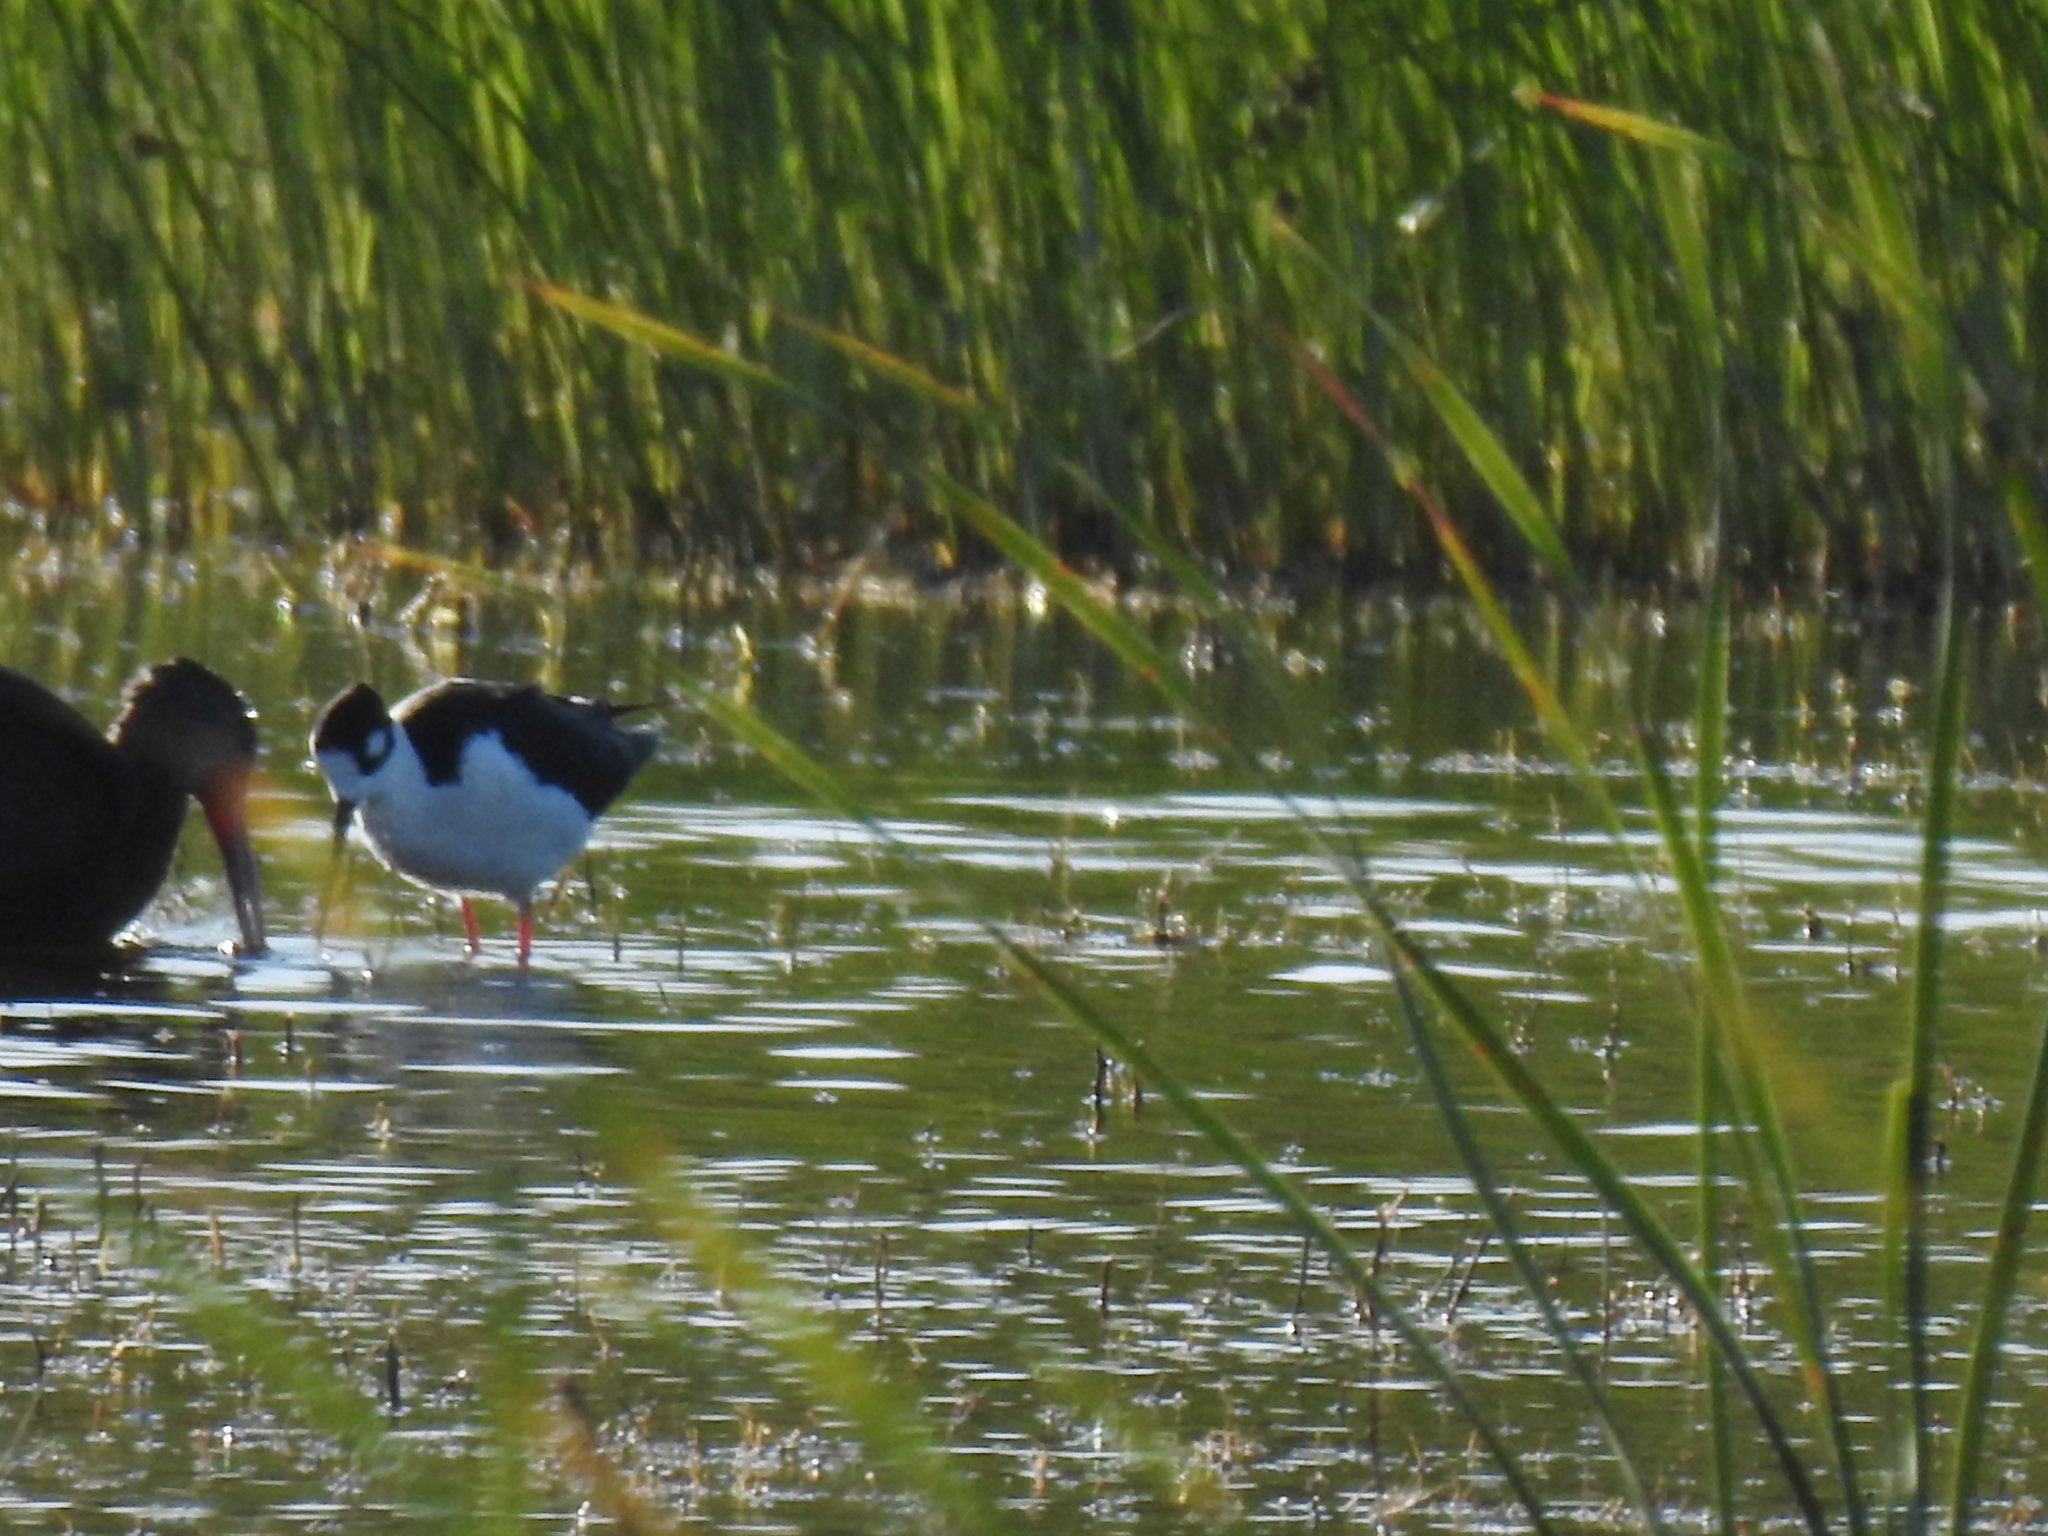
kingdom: Animalia
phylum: Chordata
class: Aves
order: Charadriiformes
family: Recurvirostridae
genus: Himantopus
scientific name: Himantopus mexicanus
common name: Black-necked stilt
